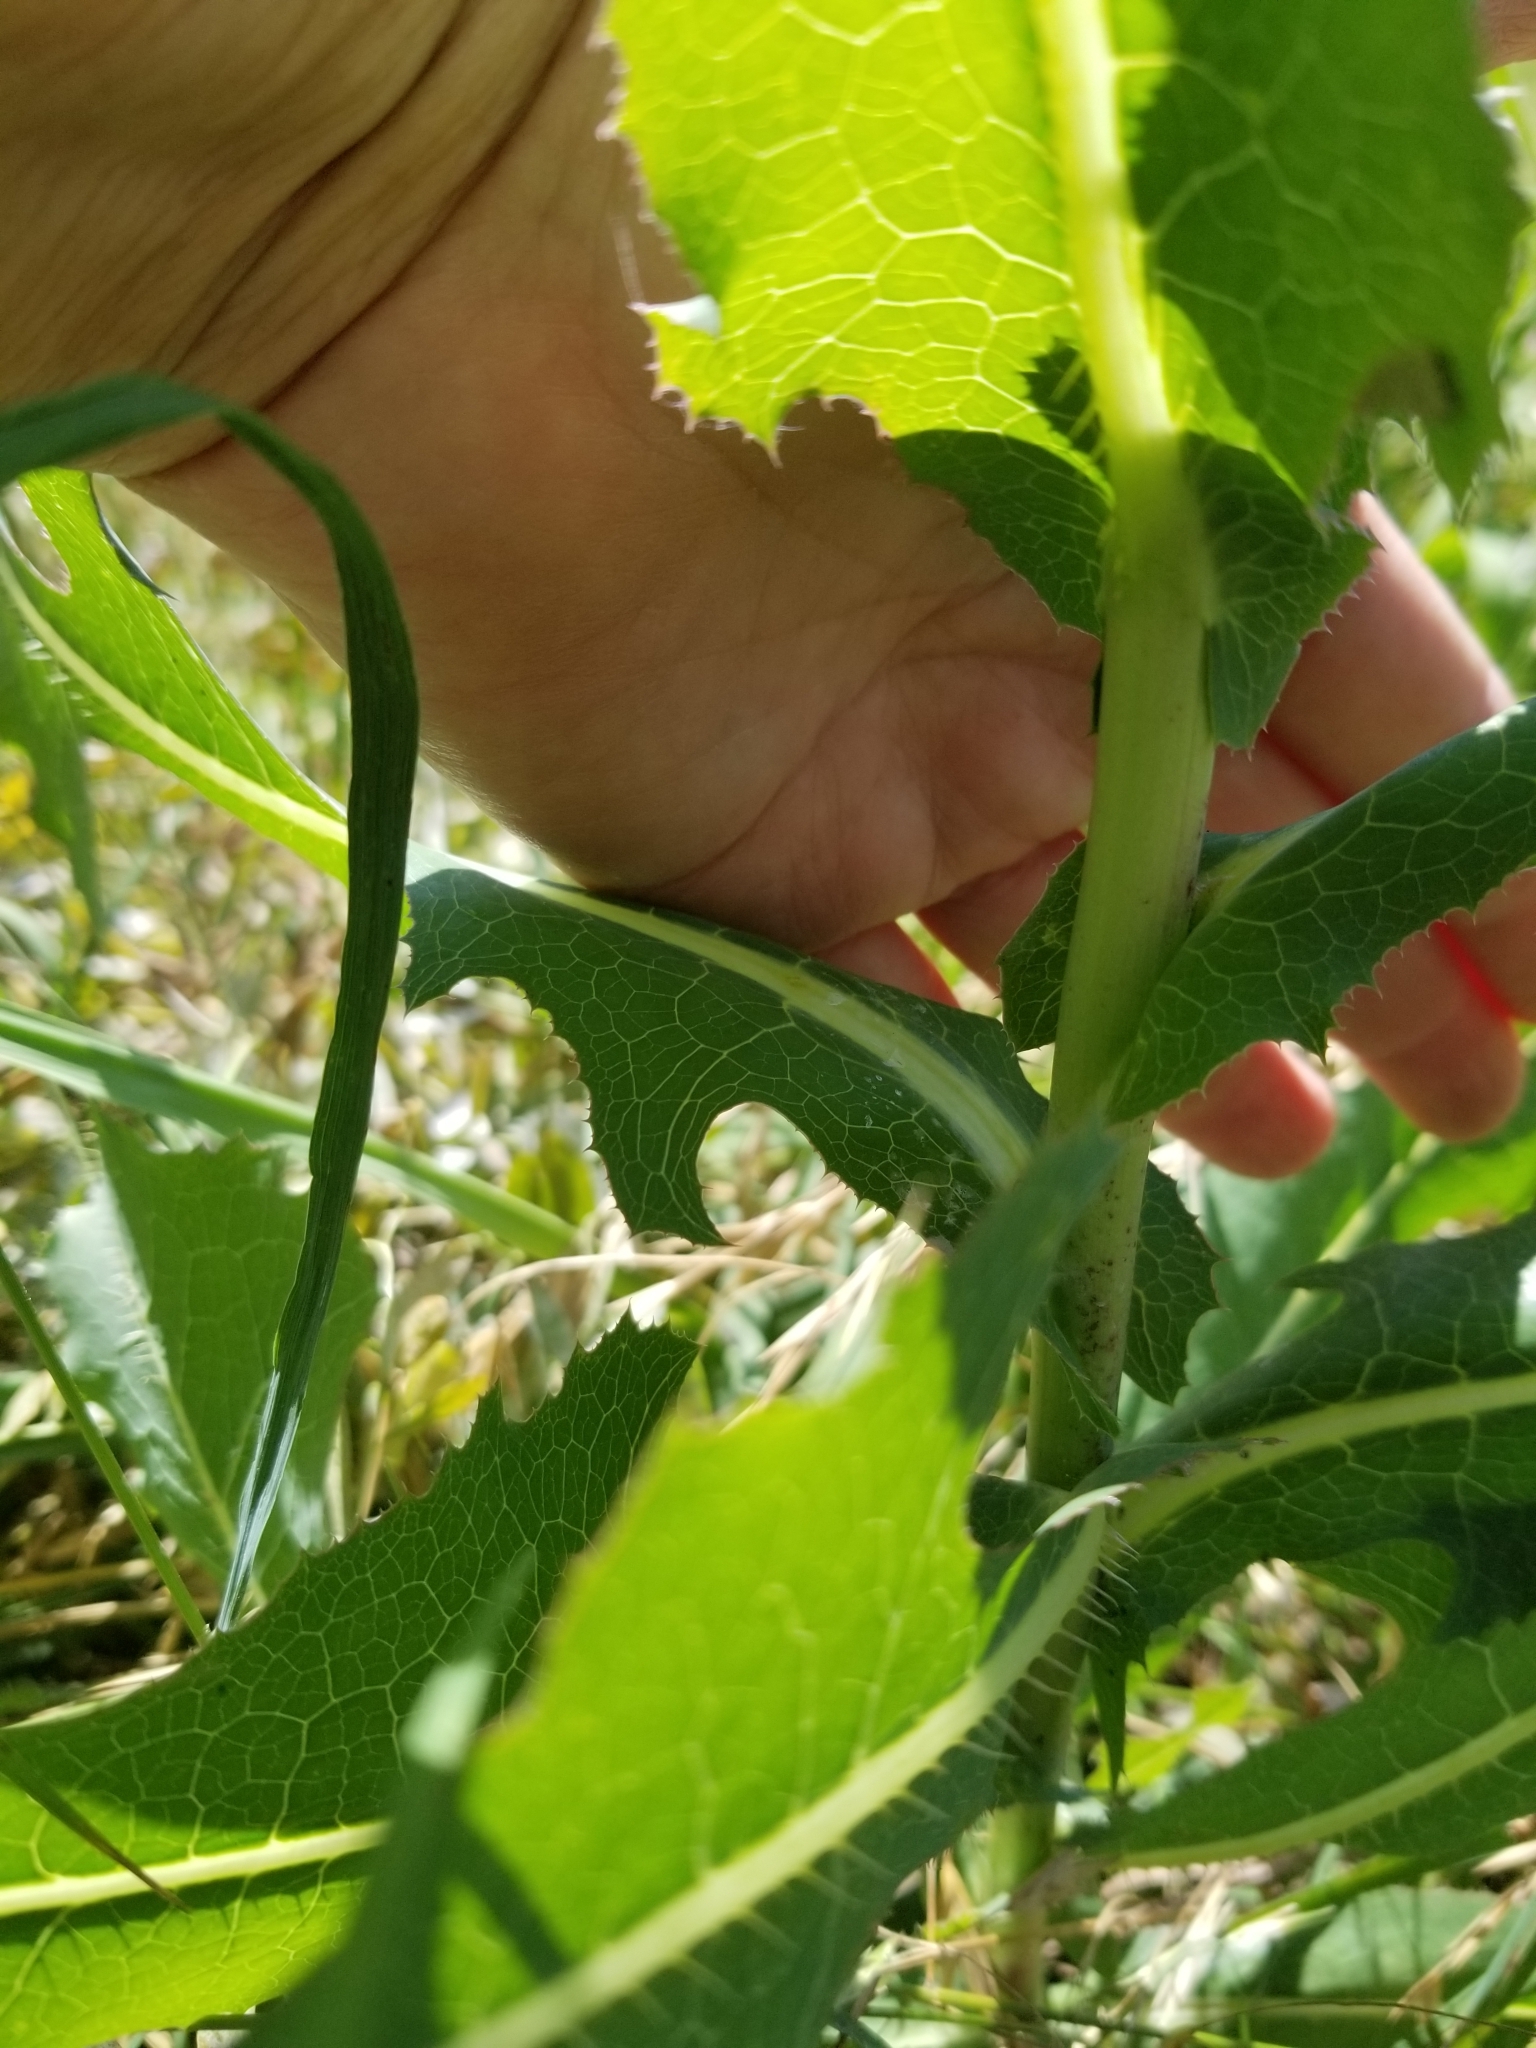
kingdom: Plantae
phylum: Tracheophyta
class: Magnoliopsida
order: Asterales
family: Asteraceae
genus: Lactuca
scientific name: Lactuca serriola
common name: Prickly lettuce
